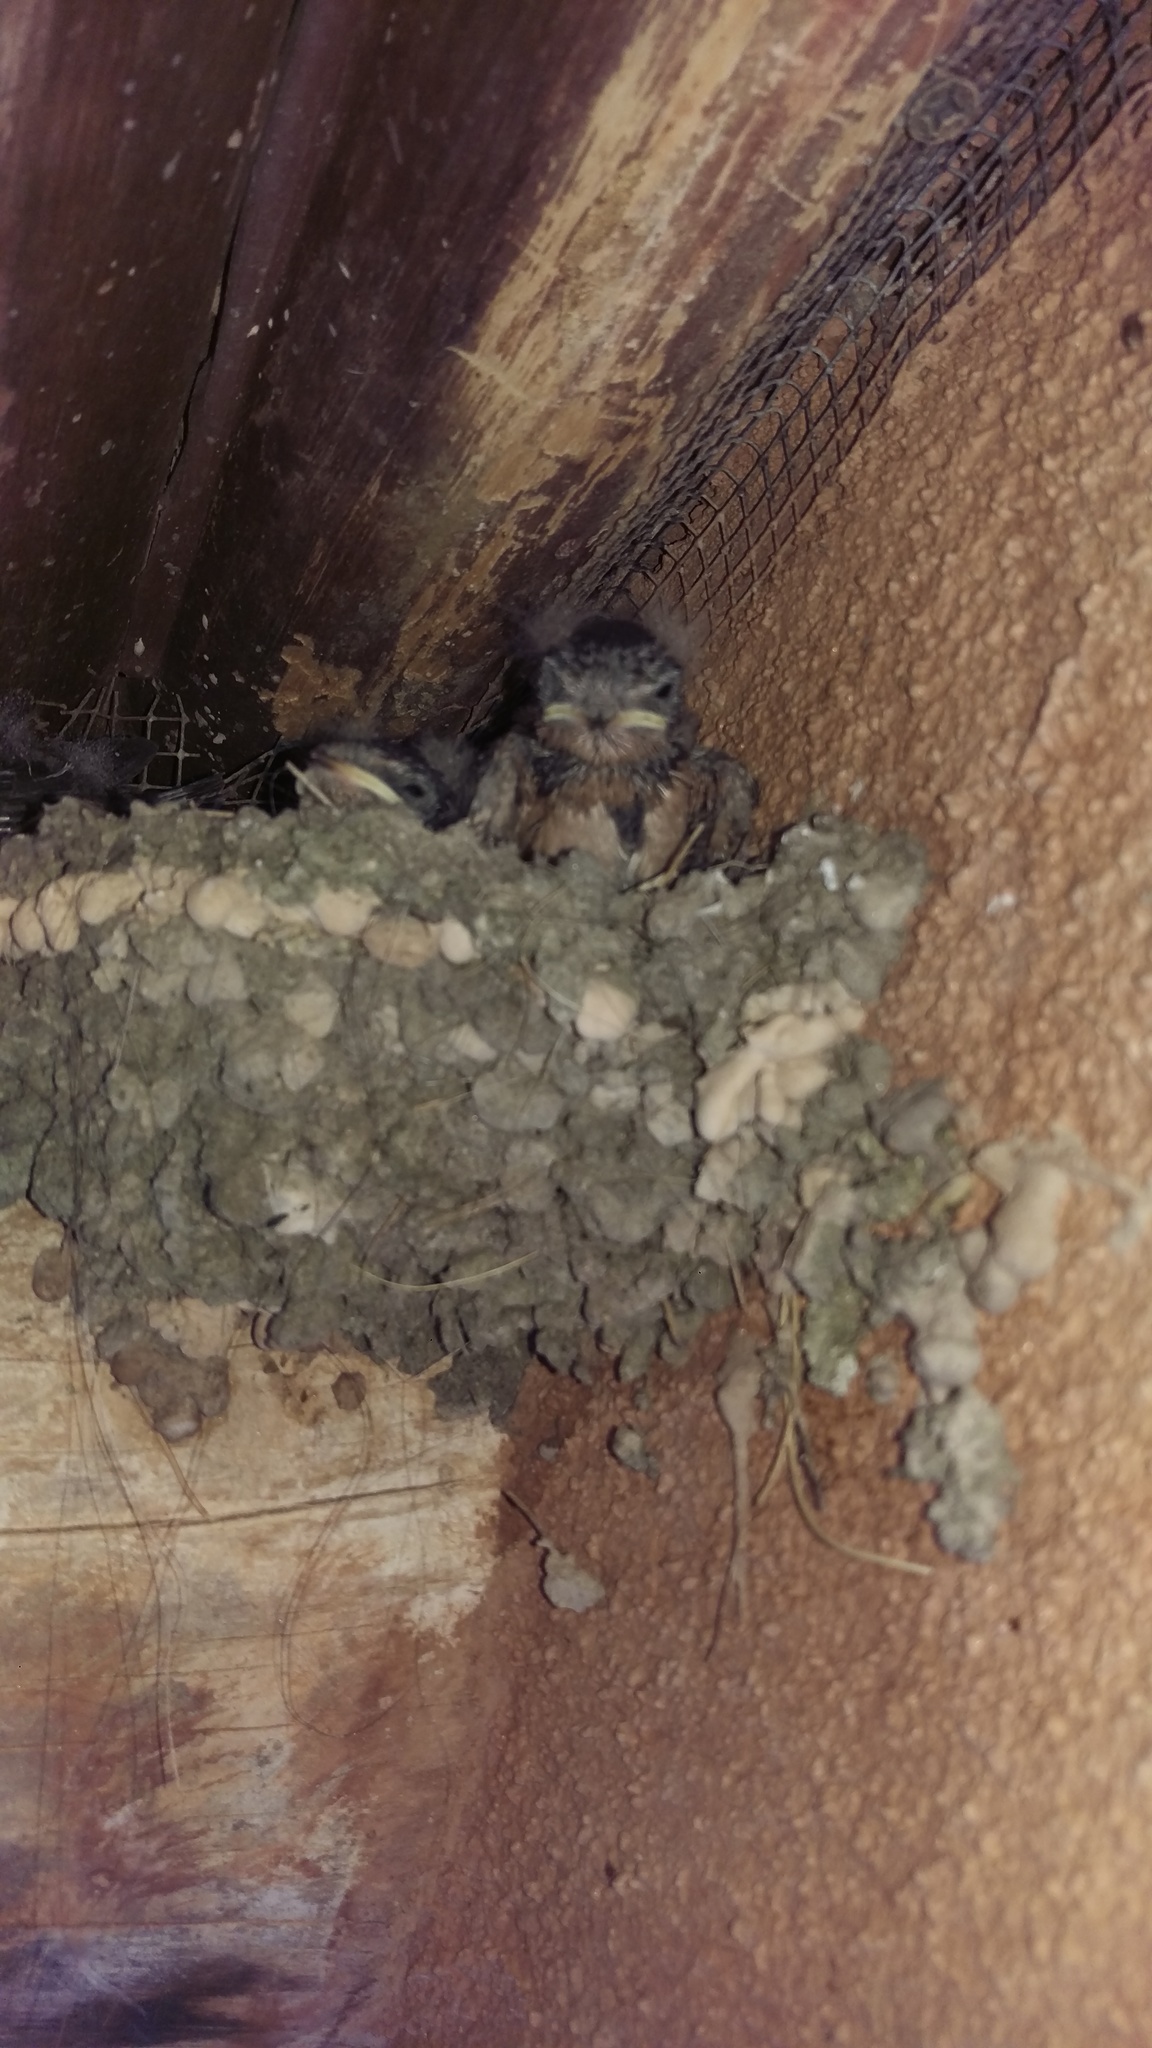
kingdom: Animalia
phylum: Chordata
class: Aves
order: Passeriformes
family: Hirundinidae
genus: Petrochelidon
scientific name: Petrochelidon pyrrhonota
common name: American cliff swallow
